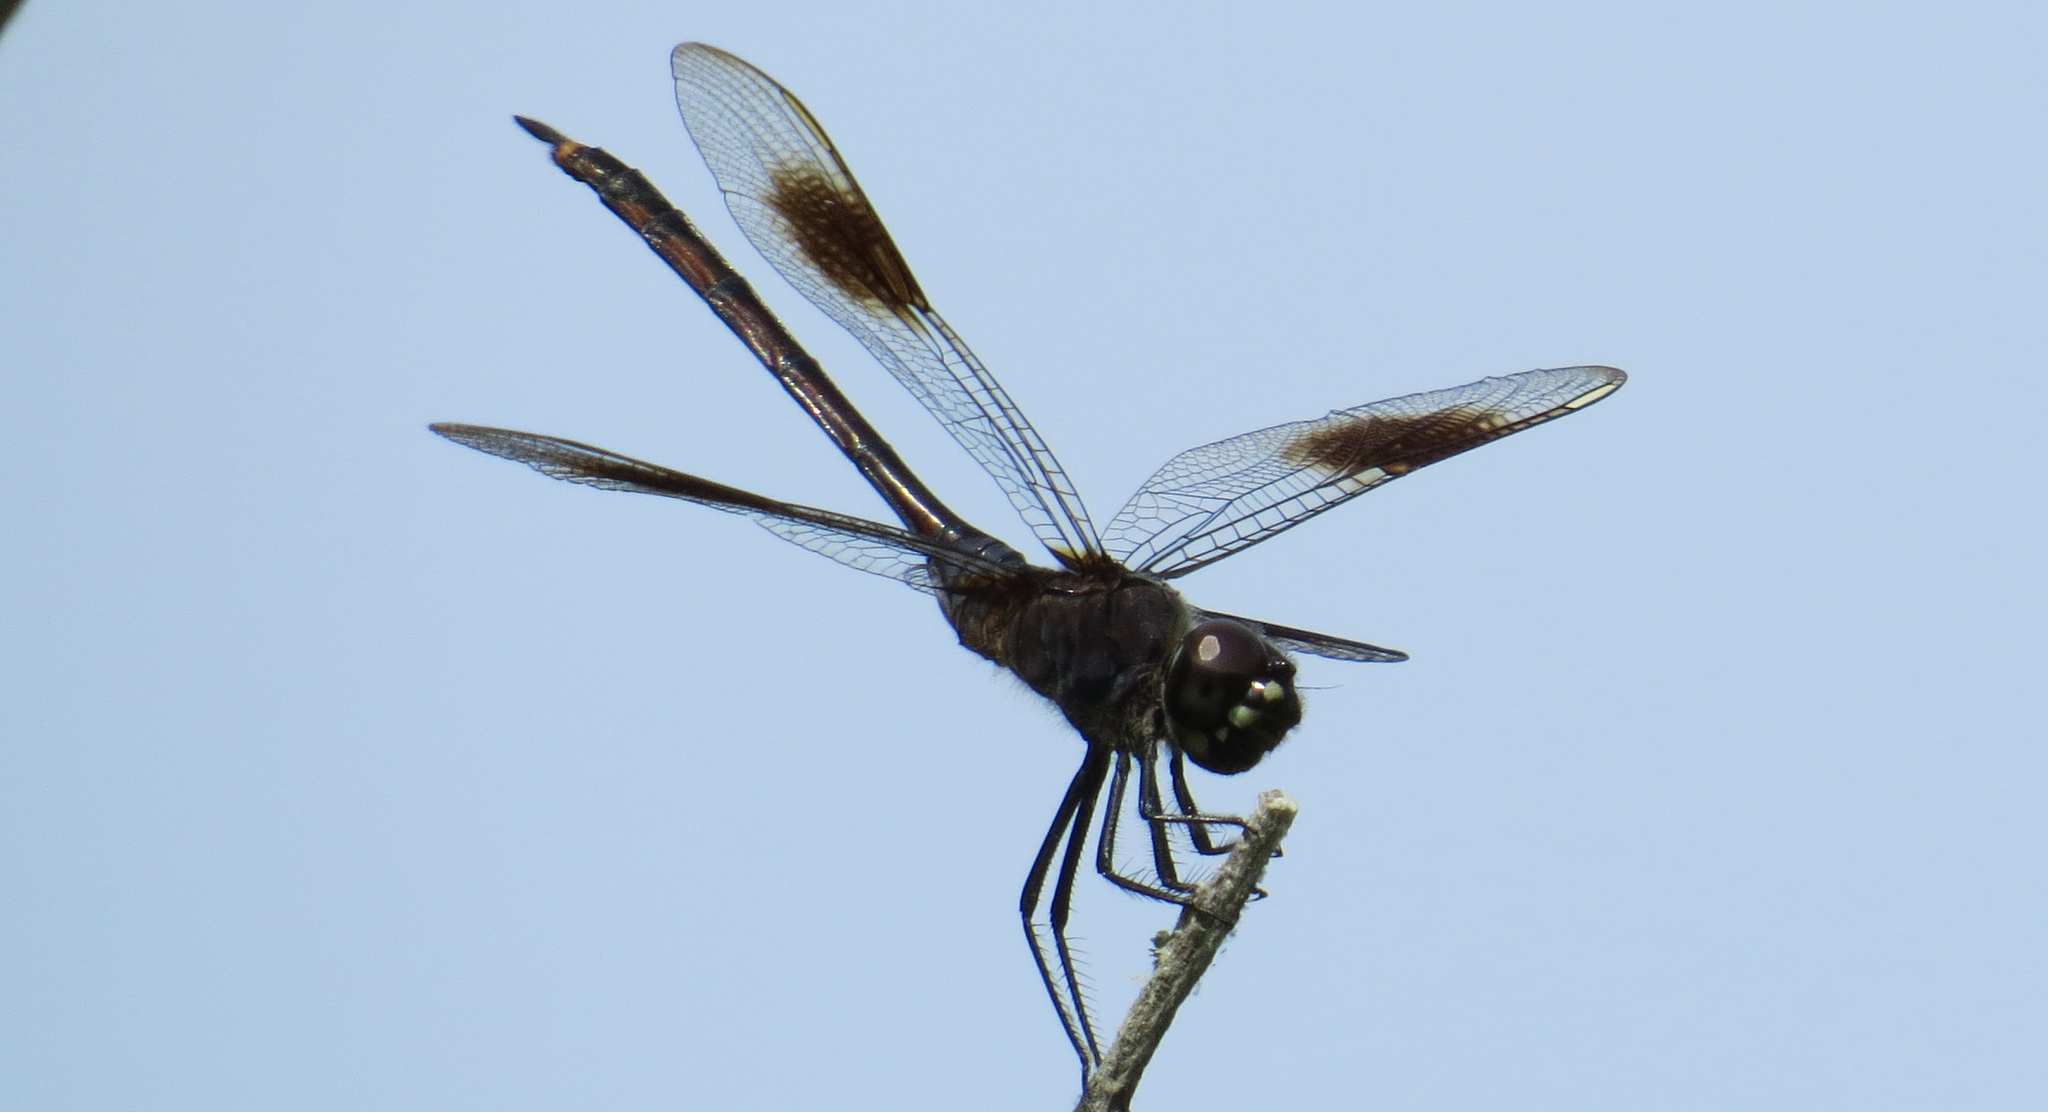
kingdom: Animalia
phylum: Arthropoda
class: Insecta
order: Odonata
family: Libellulidae
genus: Brachymesia
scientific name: Brachymesia gravida
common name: Four-spotted pennant
